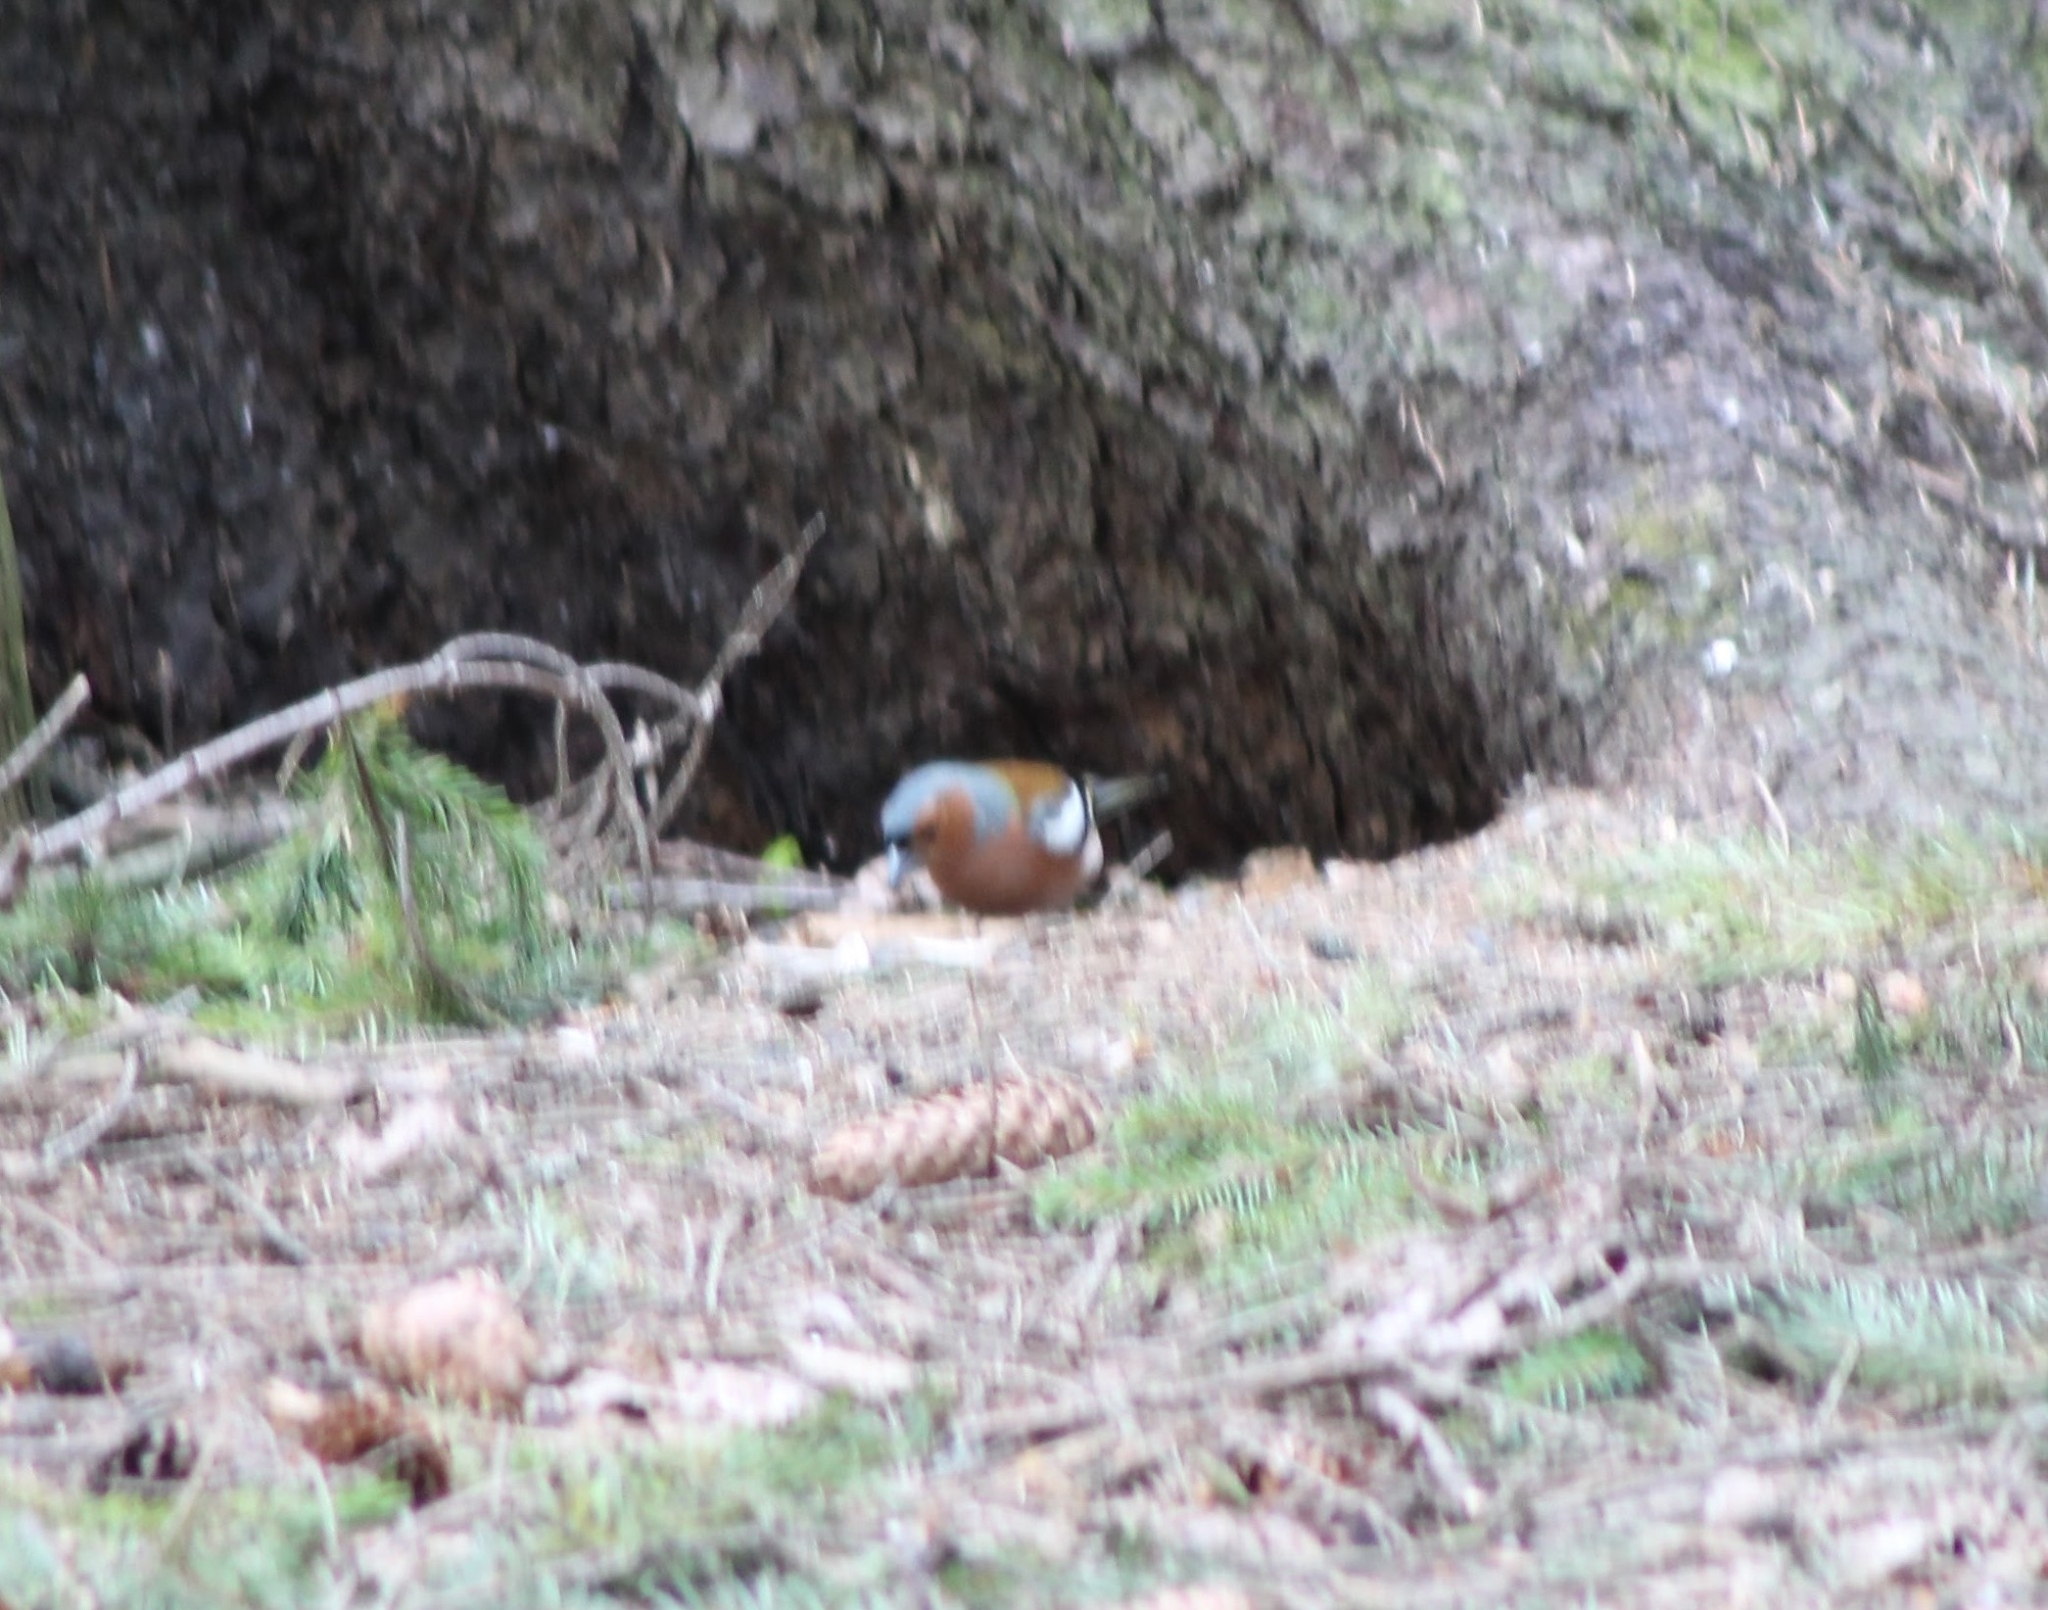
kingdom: Animalia
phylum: Chordata
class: Aves
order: Passeriformes
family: Fringillidae
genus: Fringilla
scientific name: Fringilla coelebs
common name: Common chaffinch
